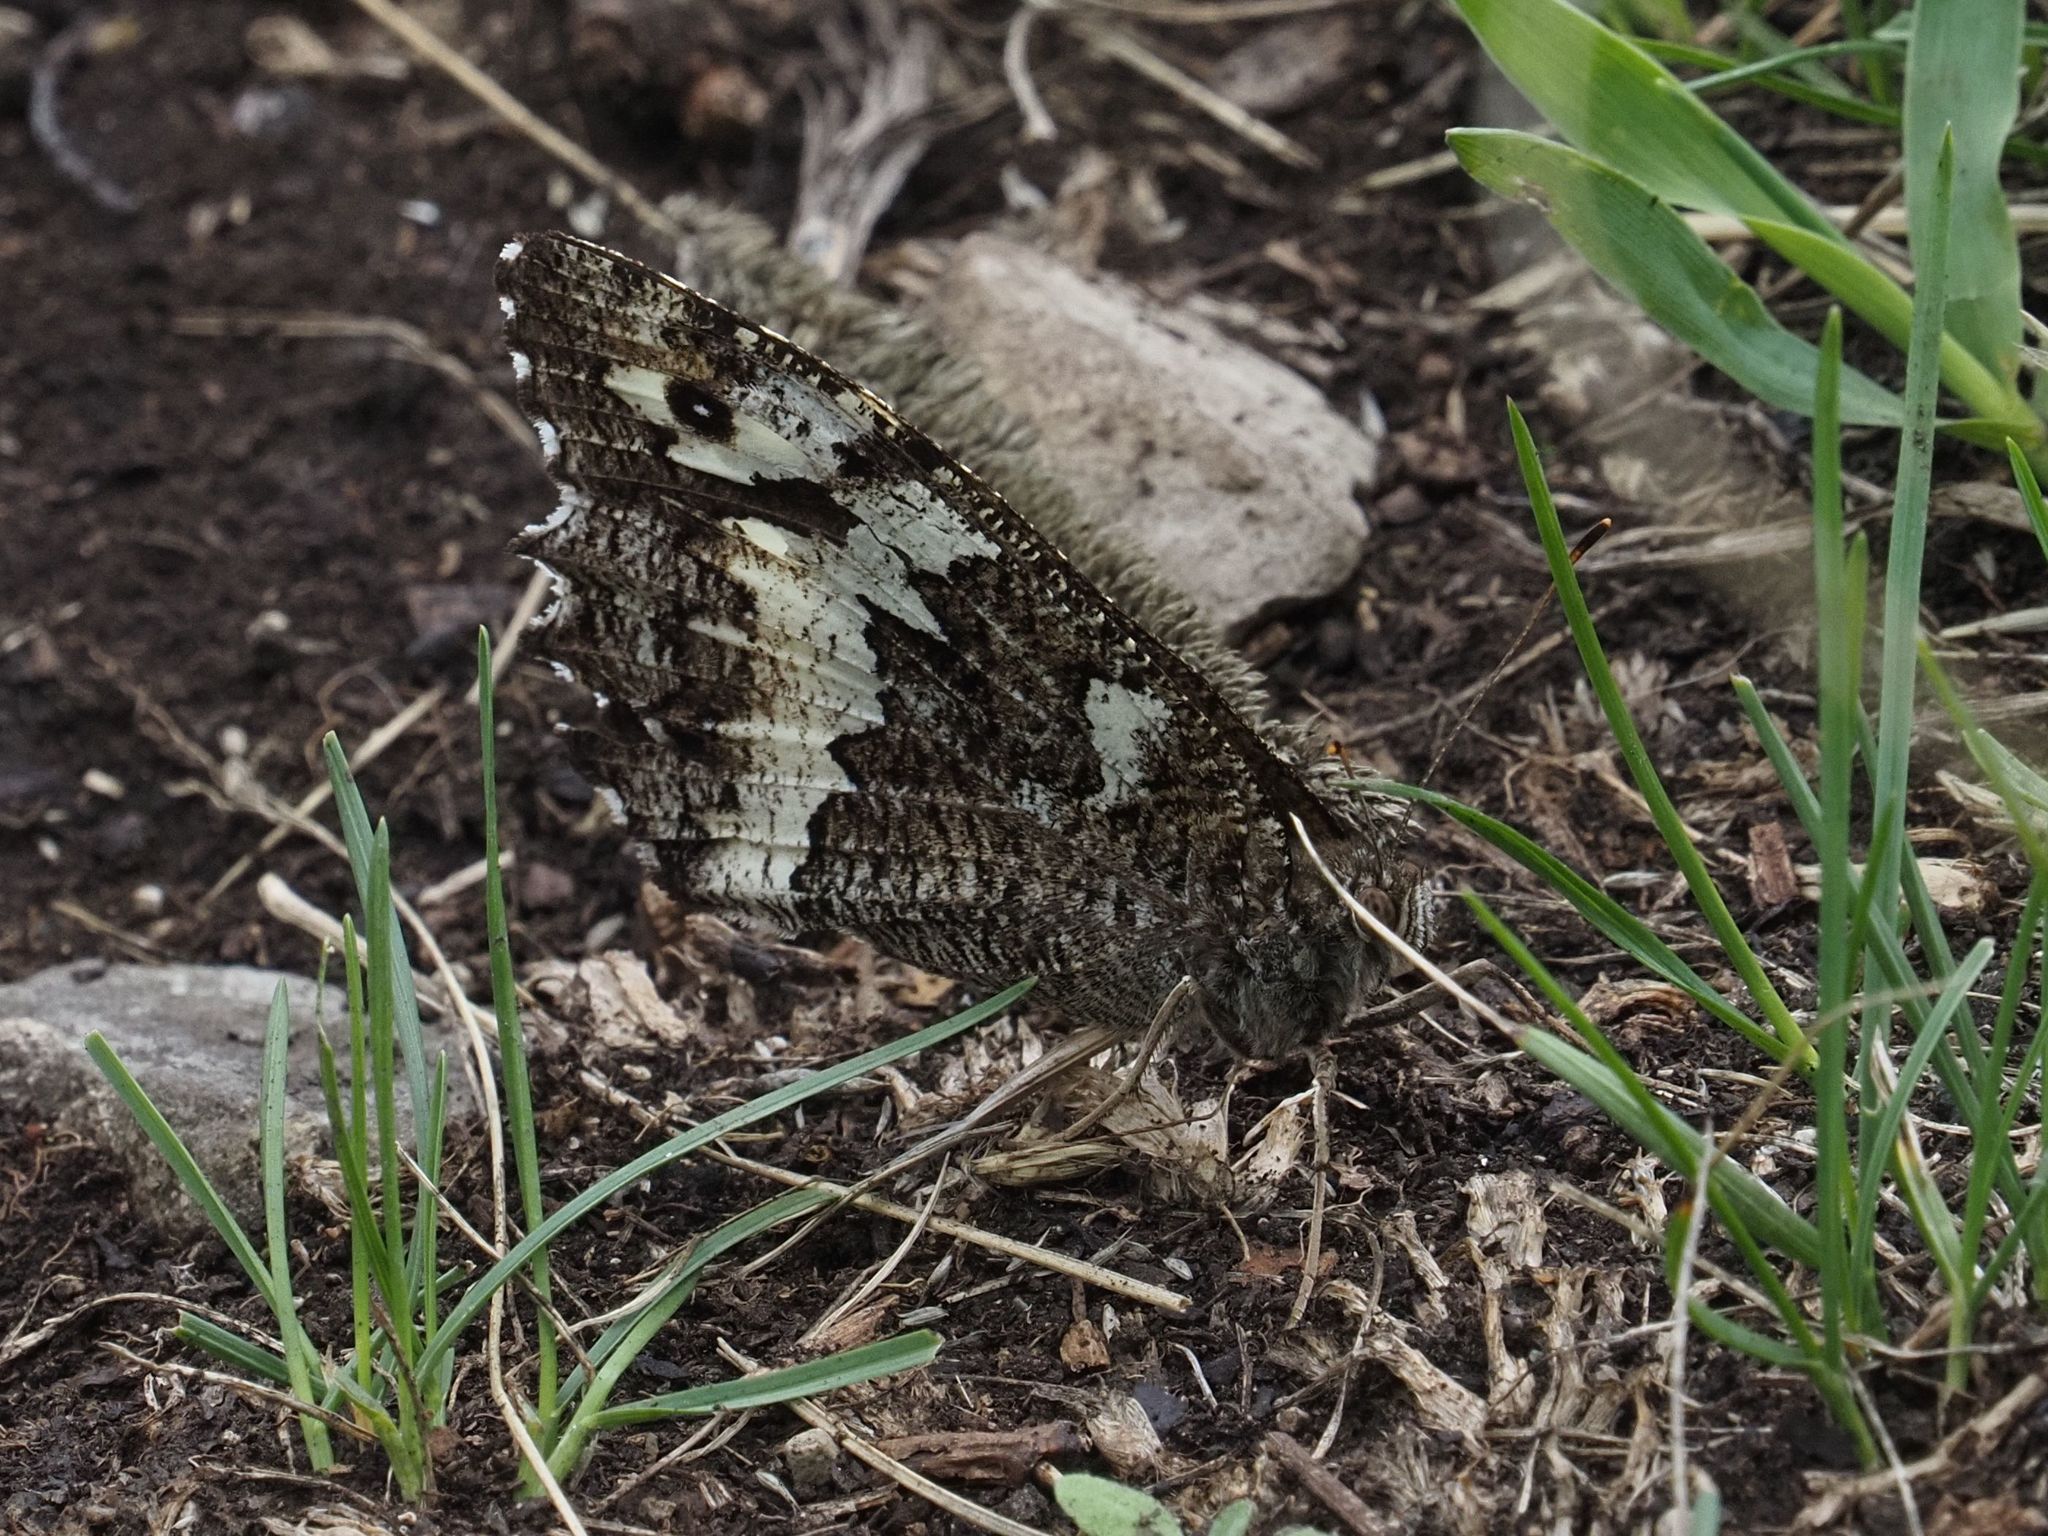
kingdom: Animalia
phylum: Arthropoda
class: Insecta
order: Lepidoptera
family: Lycaenidae
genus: Loweia
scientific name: Loweia tityrus
